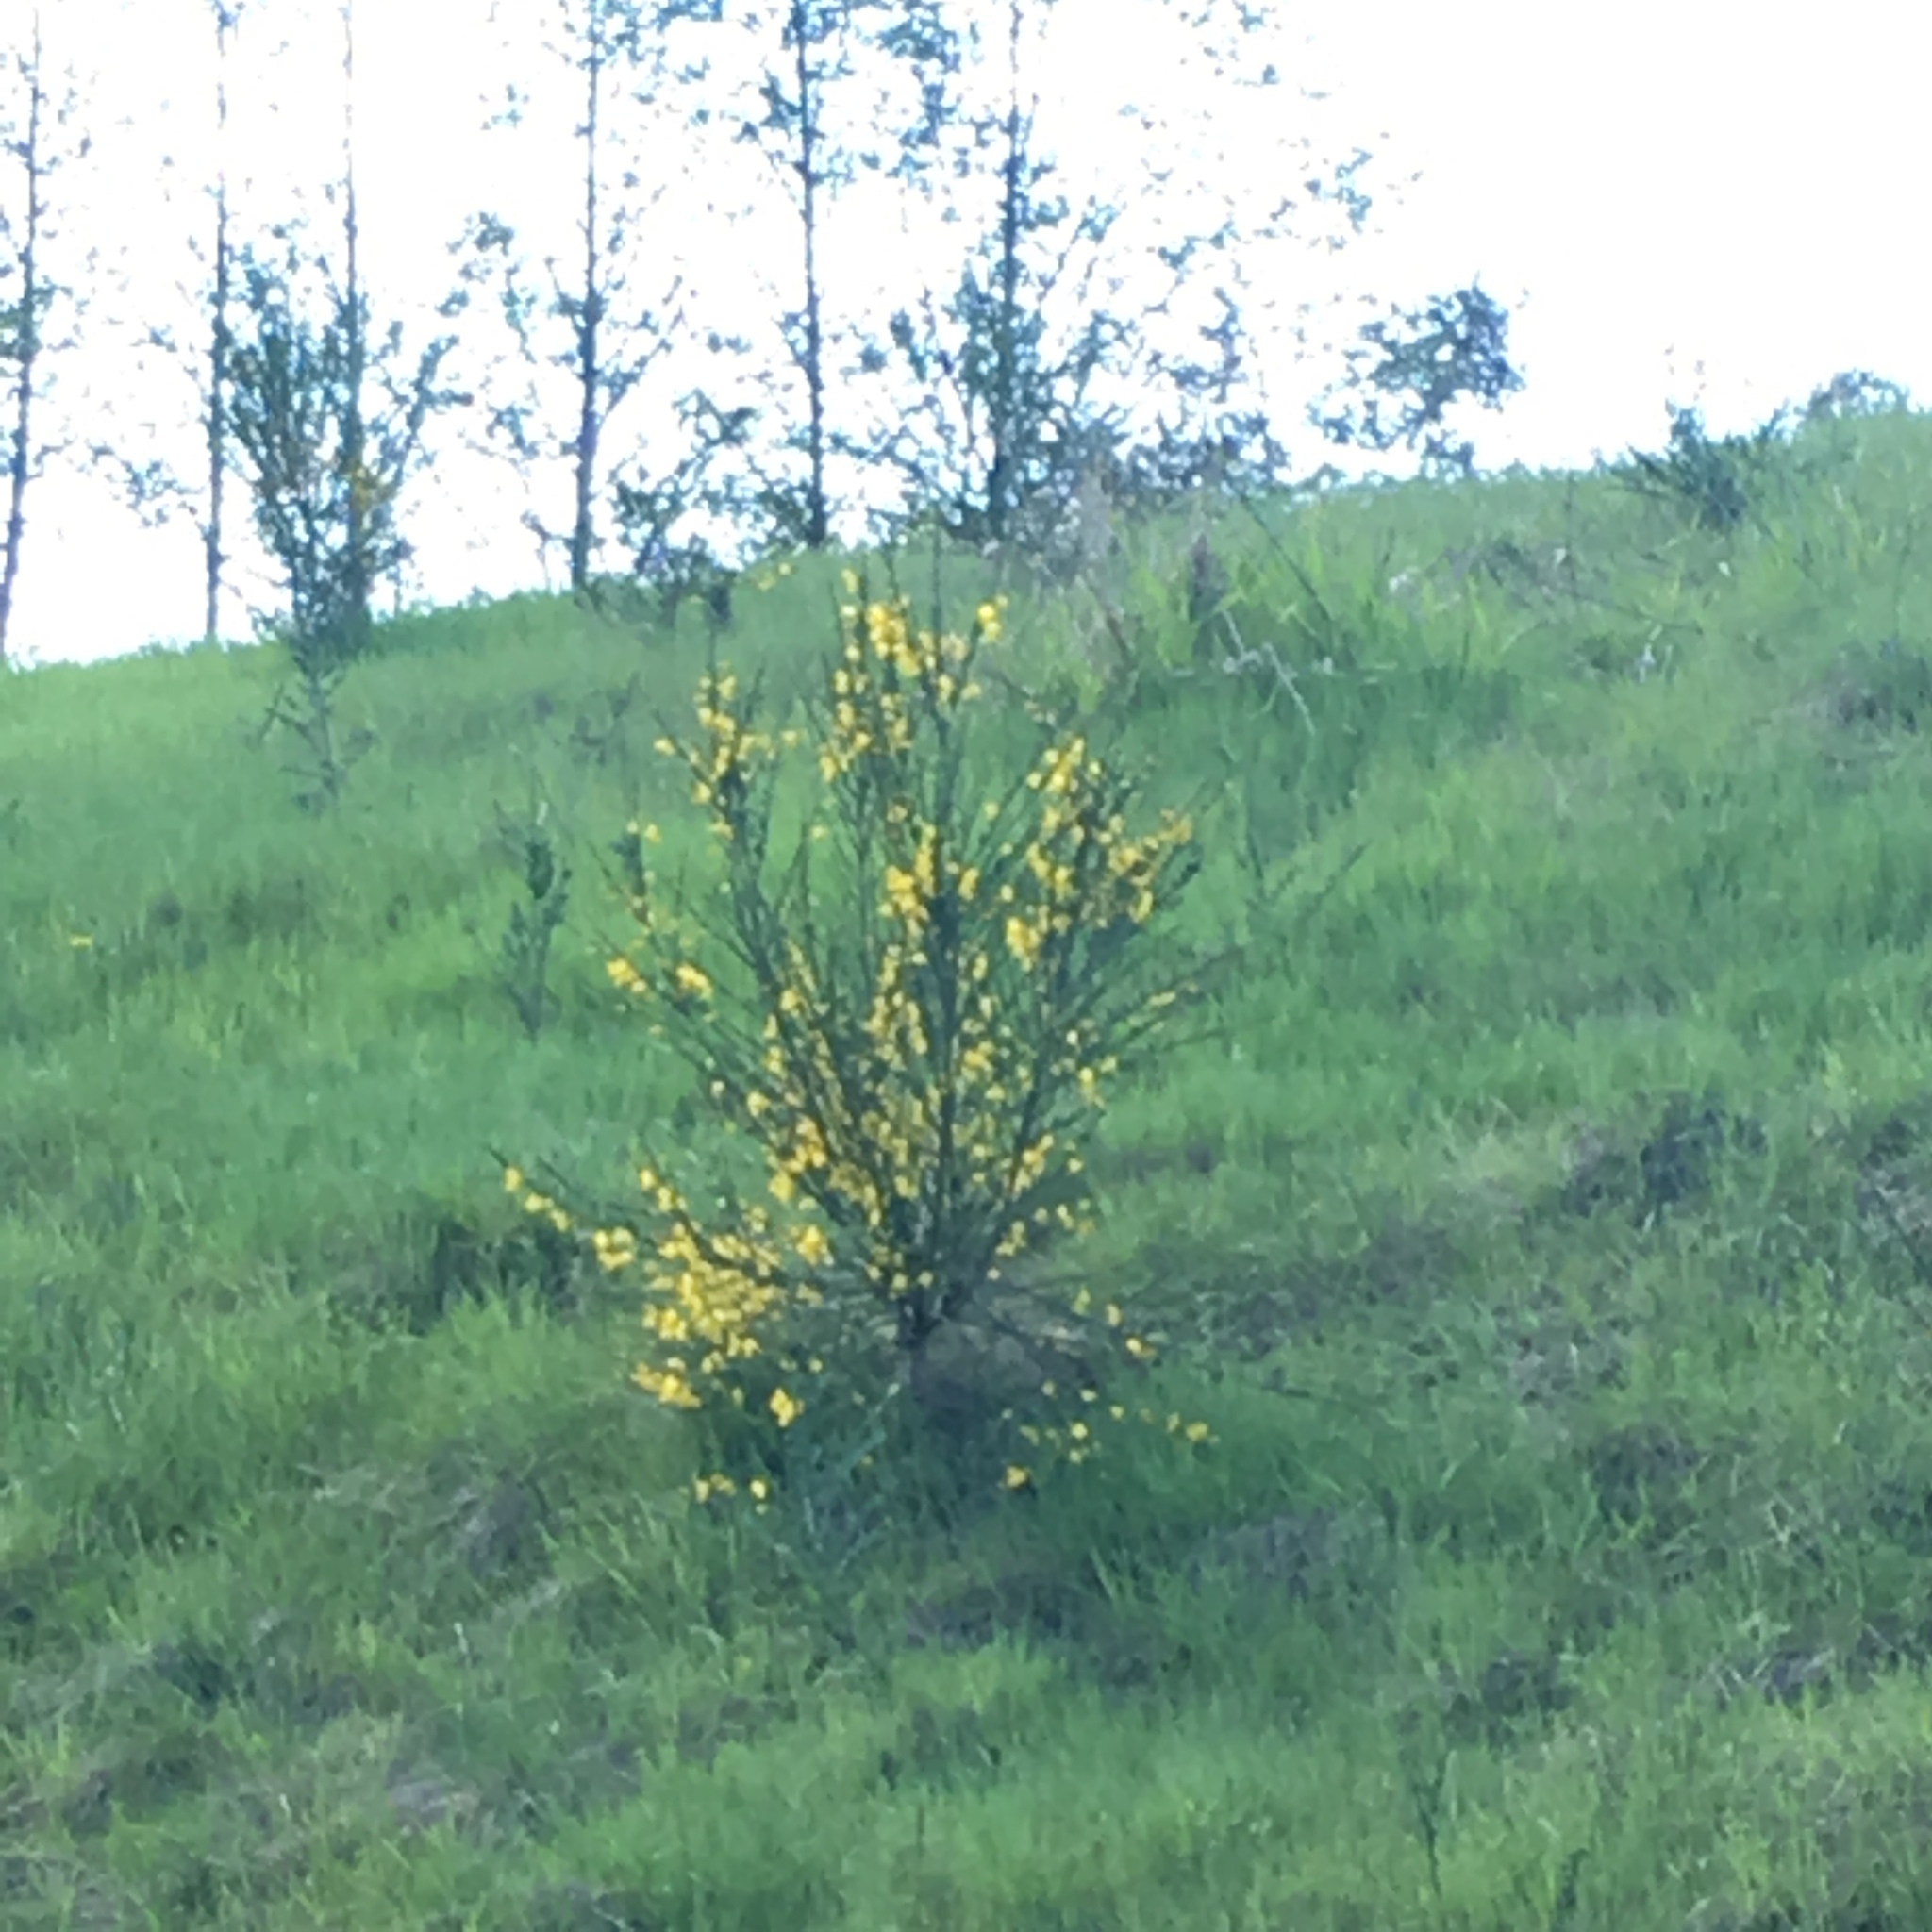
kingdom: Plantae
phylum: Tracheophyta
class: Magnoliopsida
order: Fabales
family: Fabaceae
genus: Cytisus
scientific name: Cytisus scoparius
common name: Scotch broom
